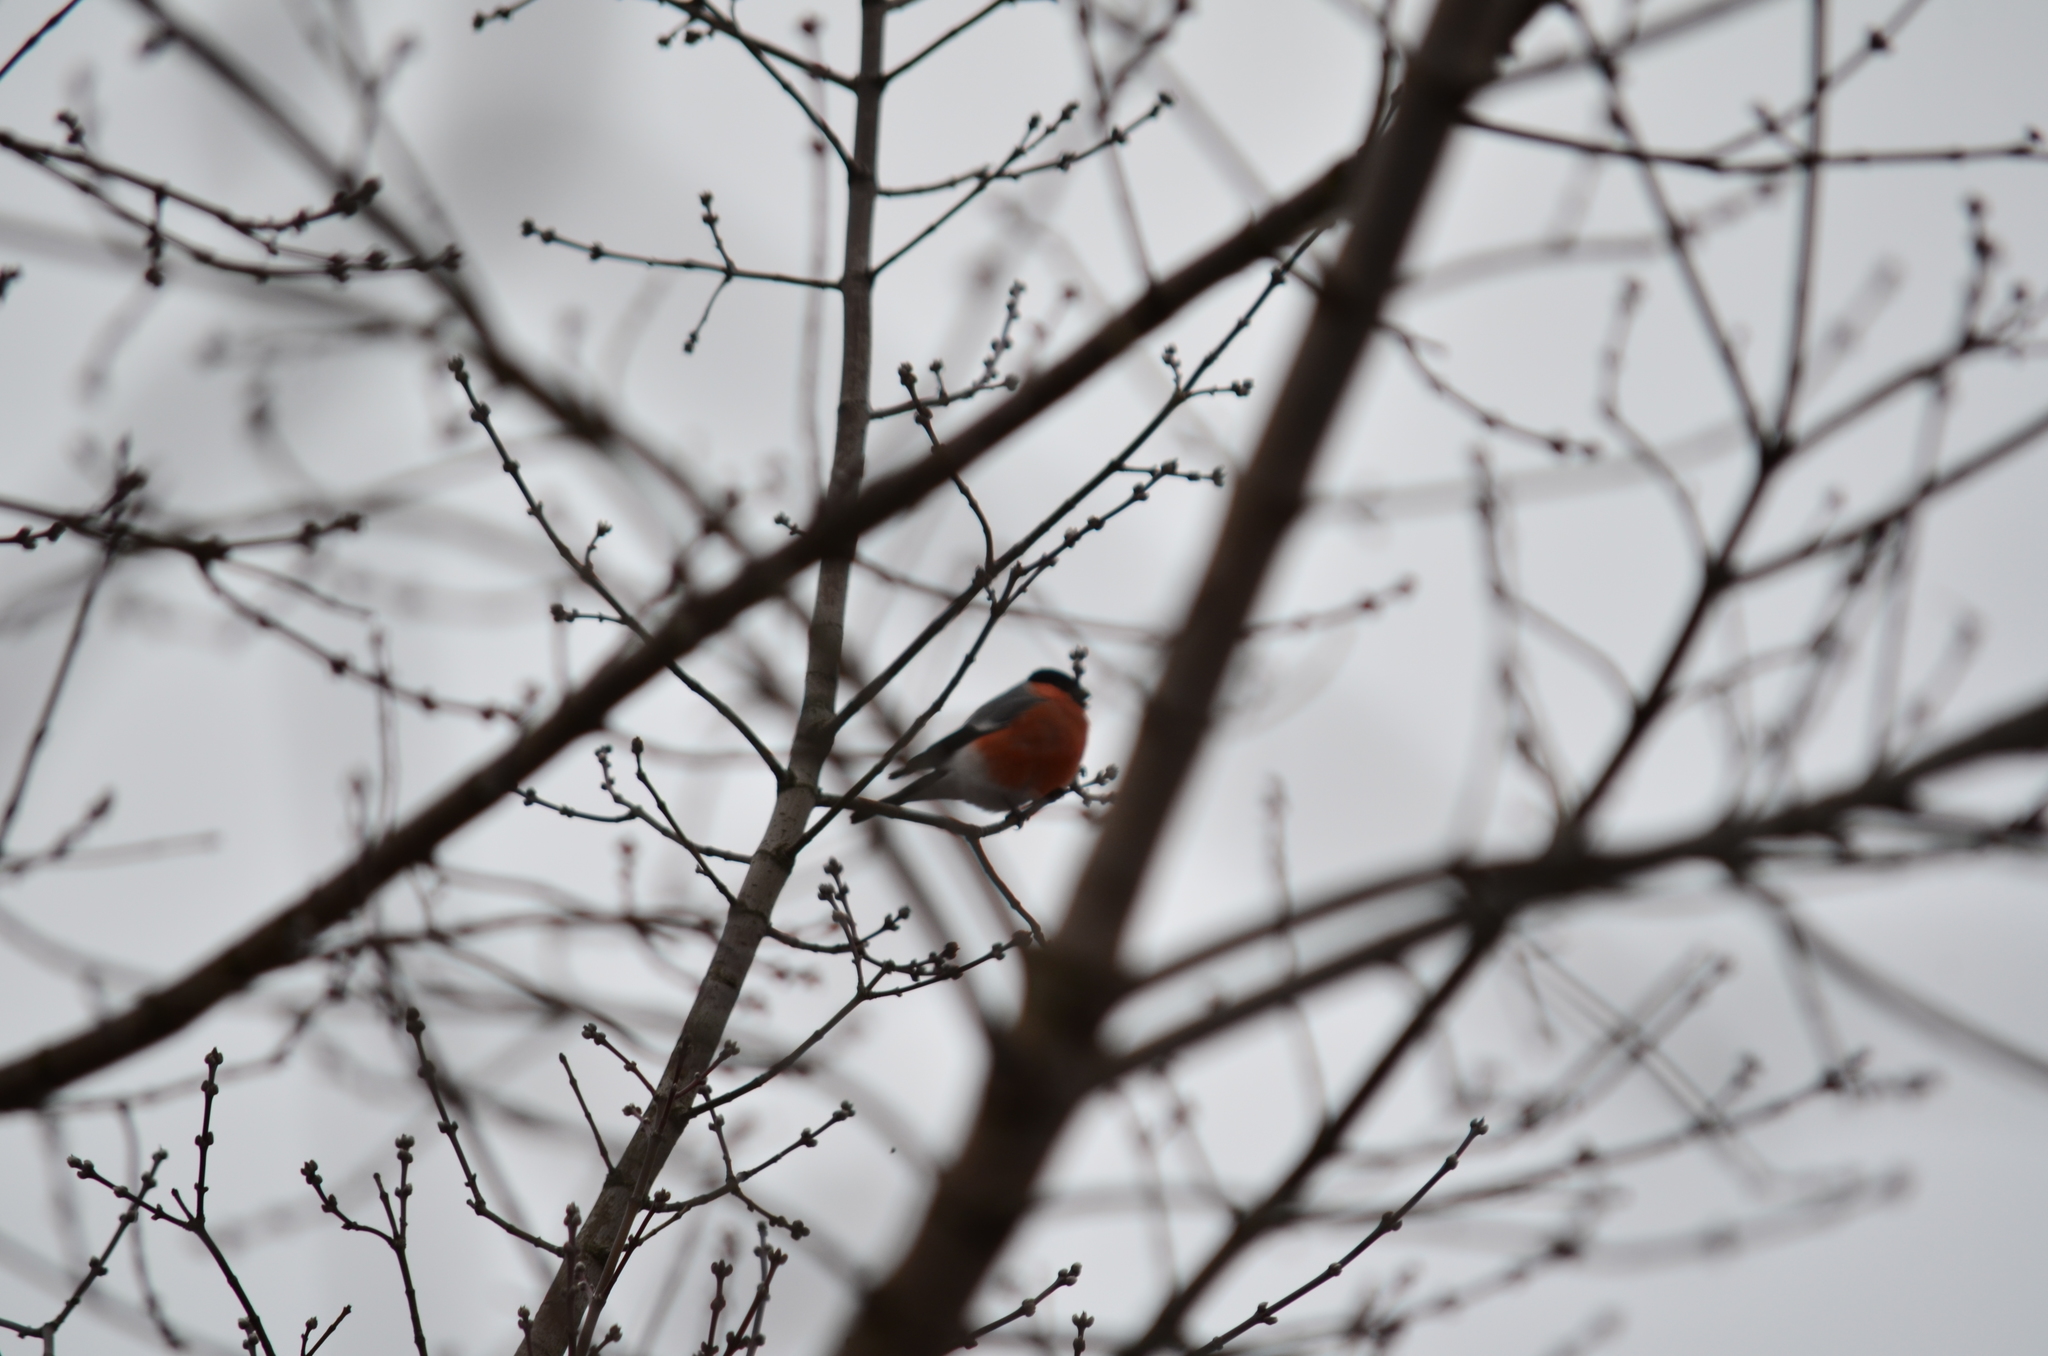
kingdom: Animalia
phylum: Chordata
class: Aves
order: Passeriformes
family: Fringillidae
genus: Pyrrhula
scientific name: Pyrrhula pyrrhula
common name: Eurasian bullfinch
